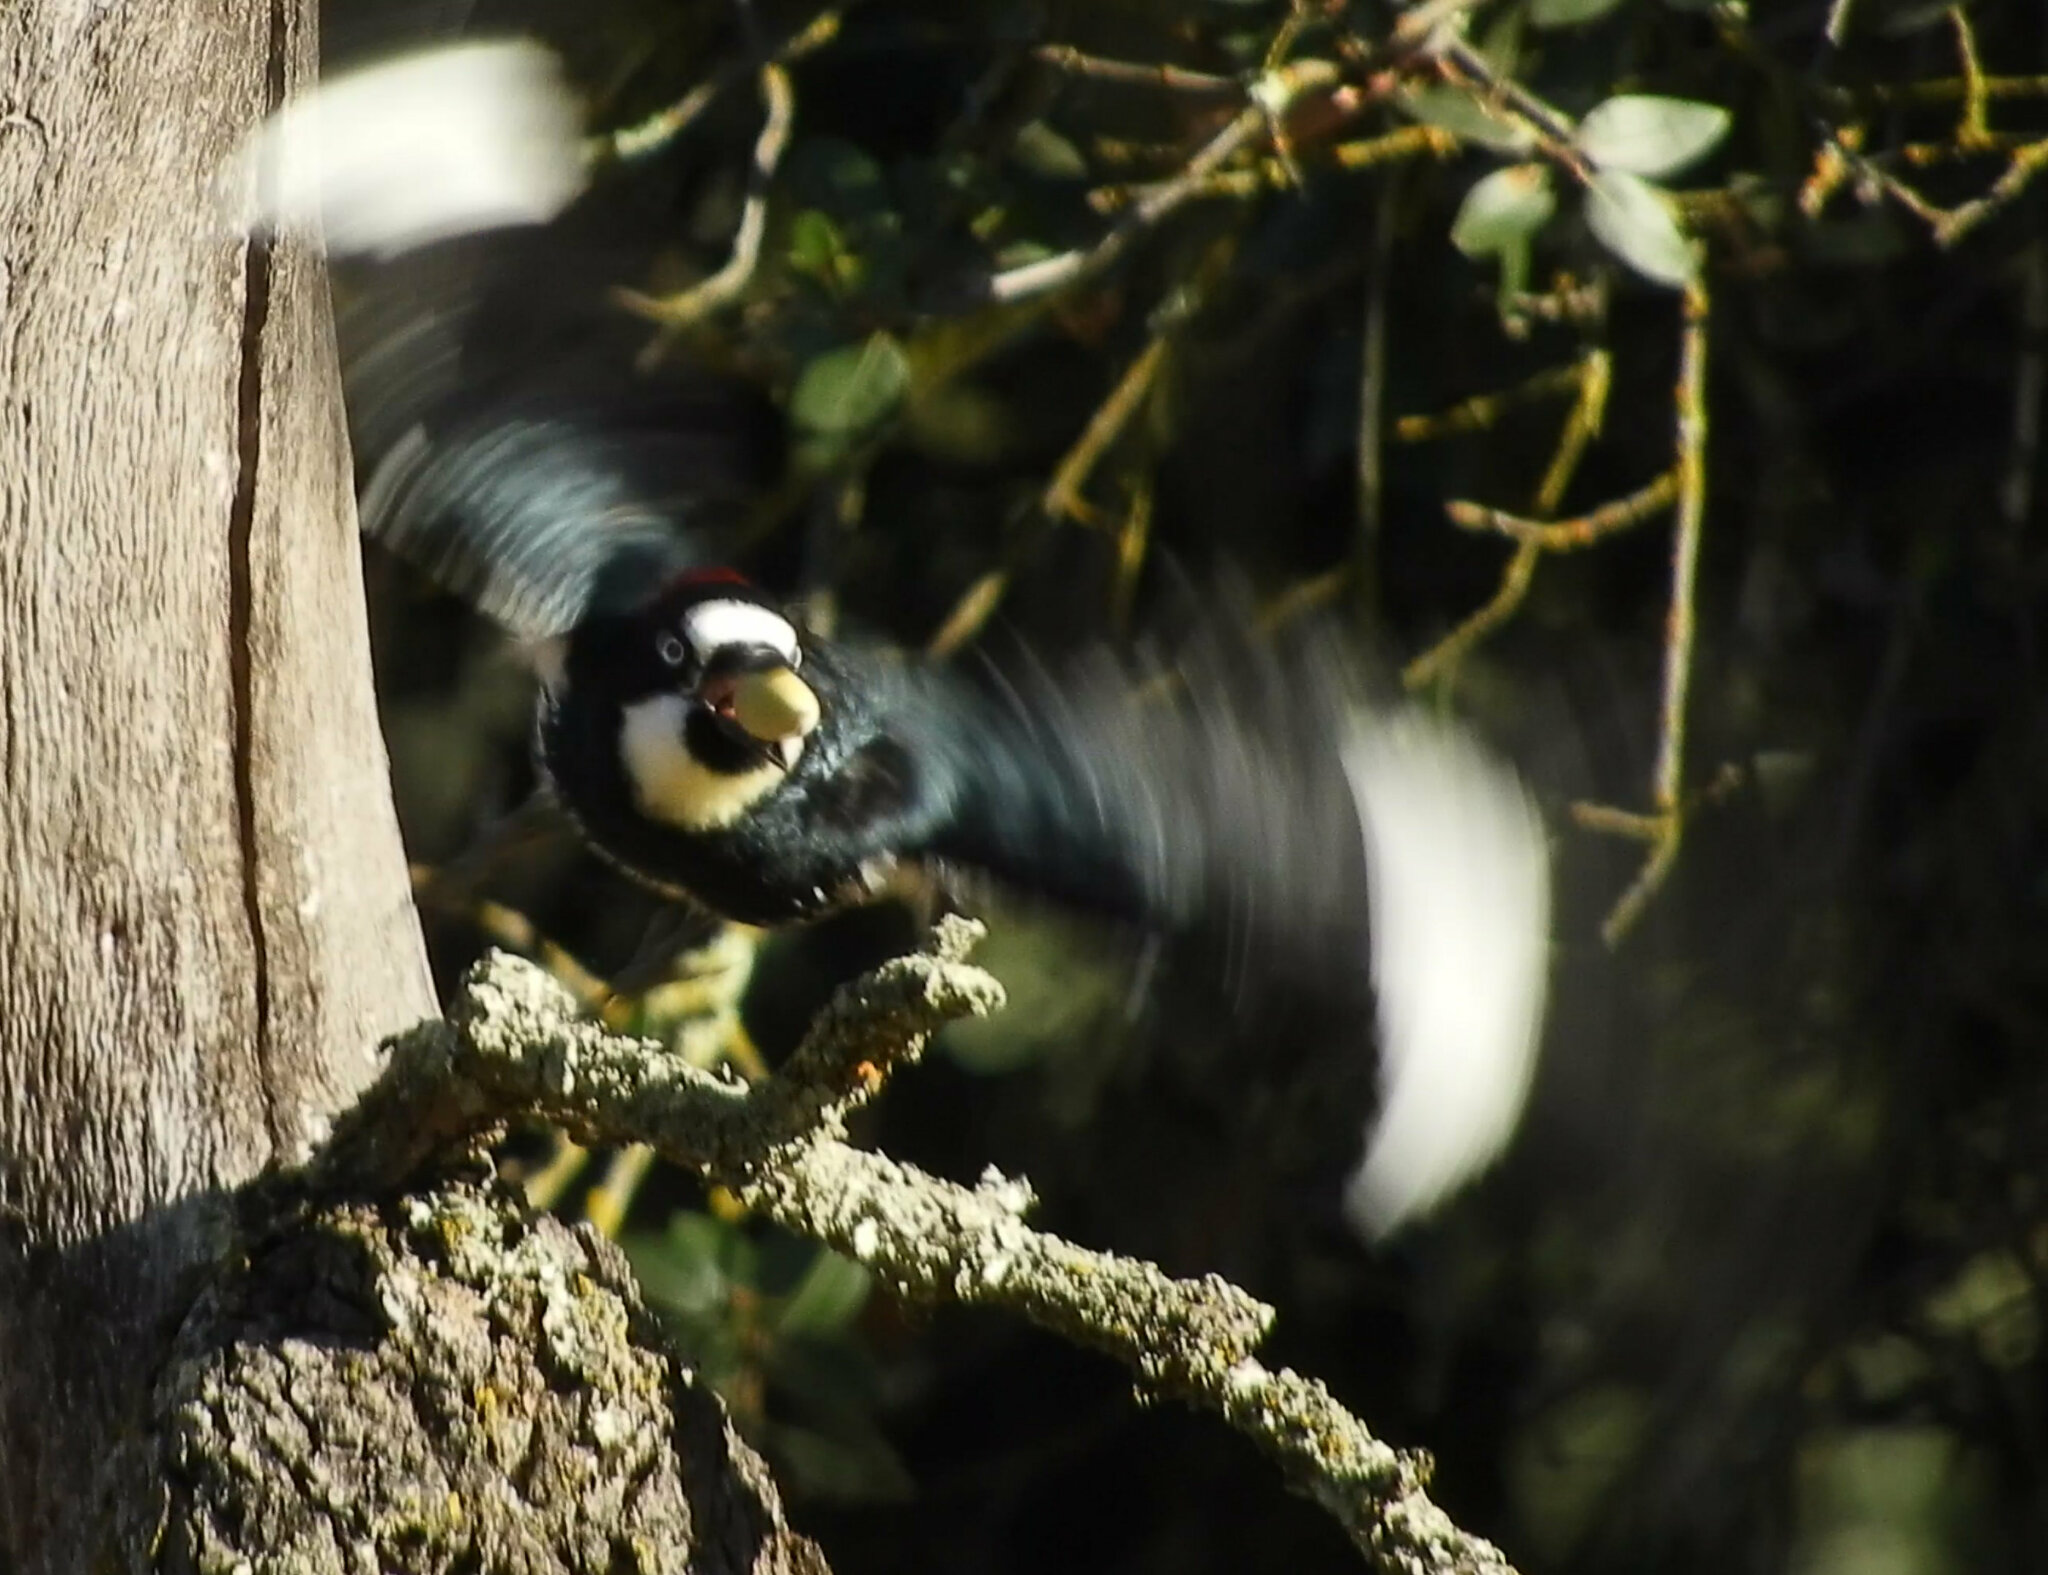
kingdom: Animalia
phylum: Chordata
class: Aves
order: Piciformes
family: Picidae
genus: Melanerpes
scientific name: Melanerpes formicivorus
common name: Acorn woodpecker
